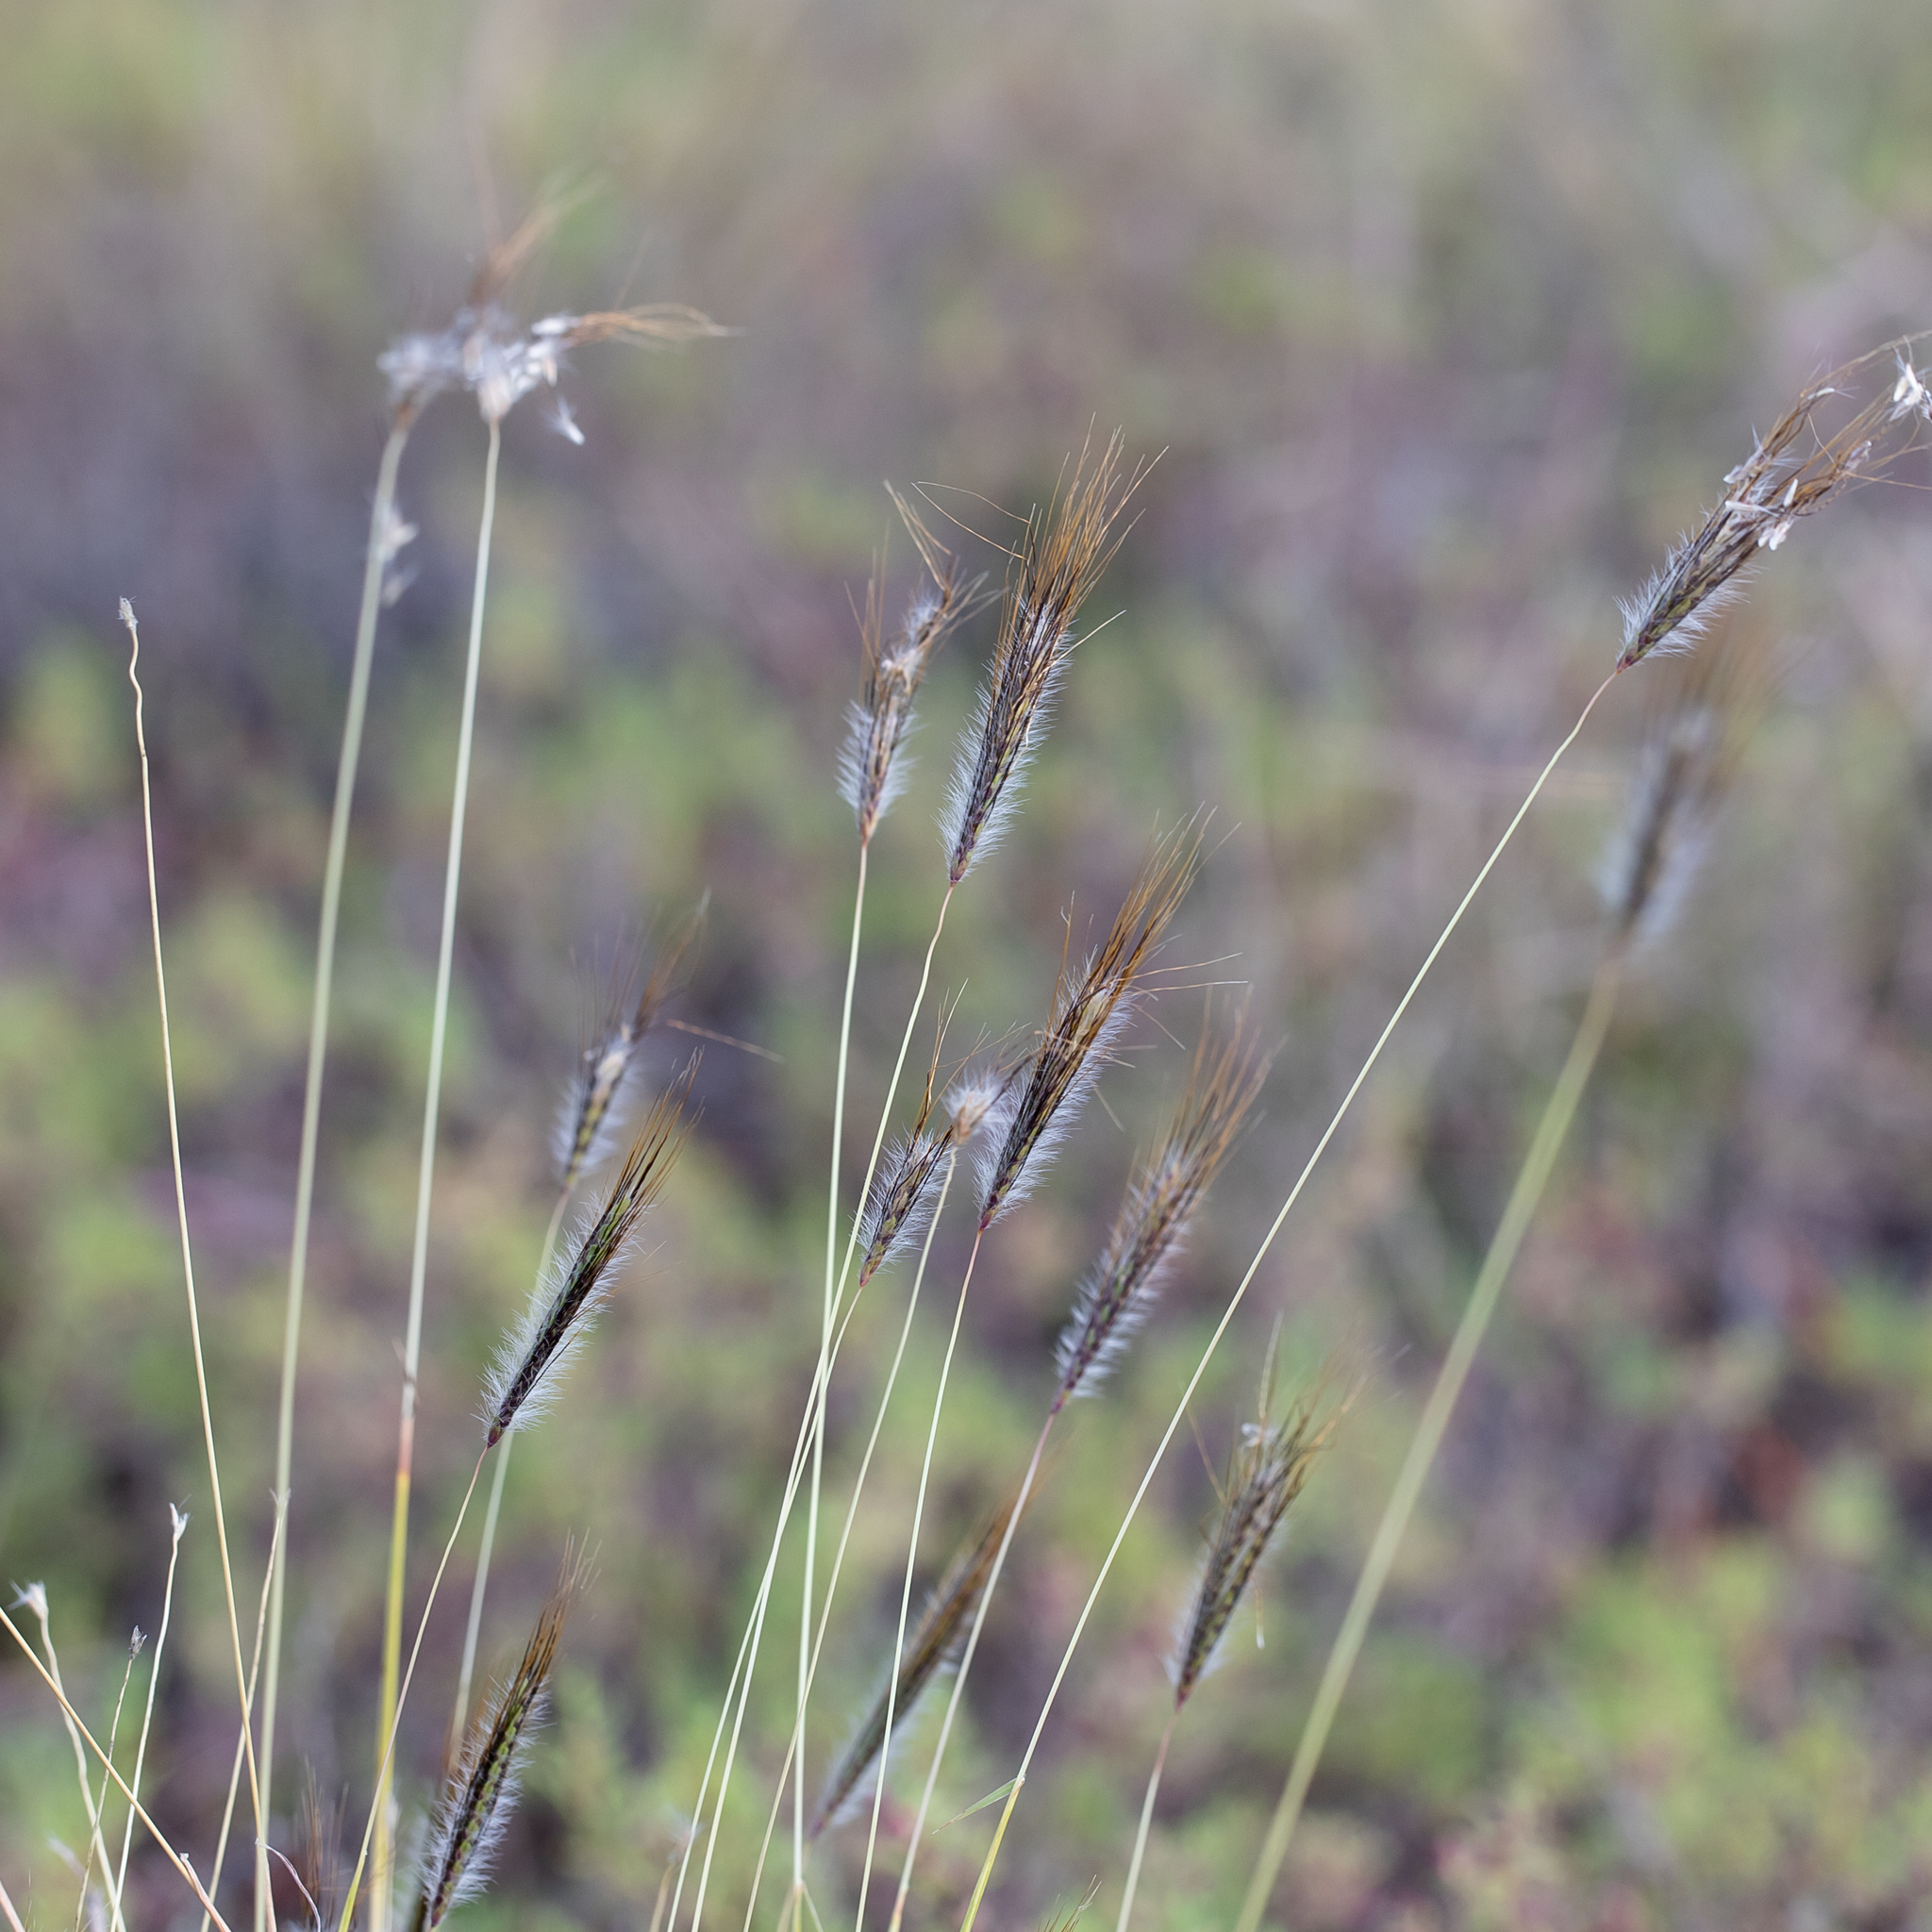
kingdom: Plantae
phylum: Tracheophyta
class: Liliopsida
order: Poales
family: Poaceae
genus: Dichanthium
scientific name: Dichanthium sericeum
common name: Silky bluestem
